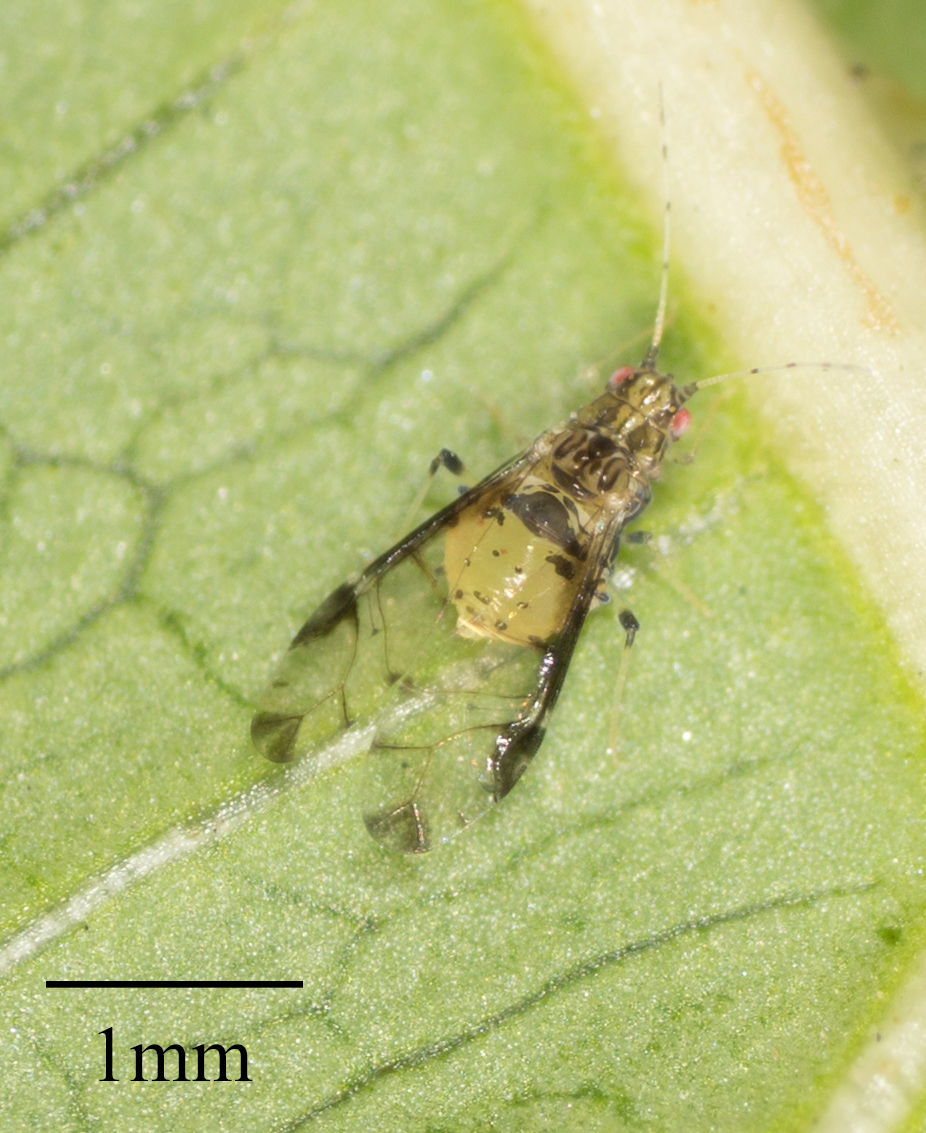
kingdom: Animalia
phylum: Arthropoda
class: Insecta
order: Hemiptera
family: Aphididae
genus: Sarucallis
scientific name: Sarucallis kahawaluokalani
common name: Crapemyrtle aphid
